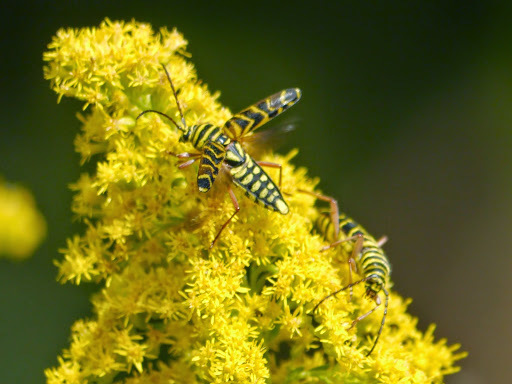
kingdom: Animalia
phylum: Arthropoda
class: Insecta
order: Coleoptera
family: Cerambycidae
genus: Megacyllene
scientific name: Megacyllene robiniae
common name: Locust borer
